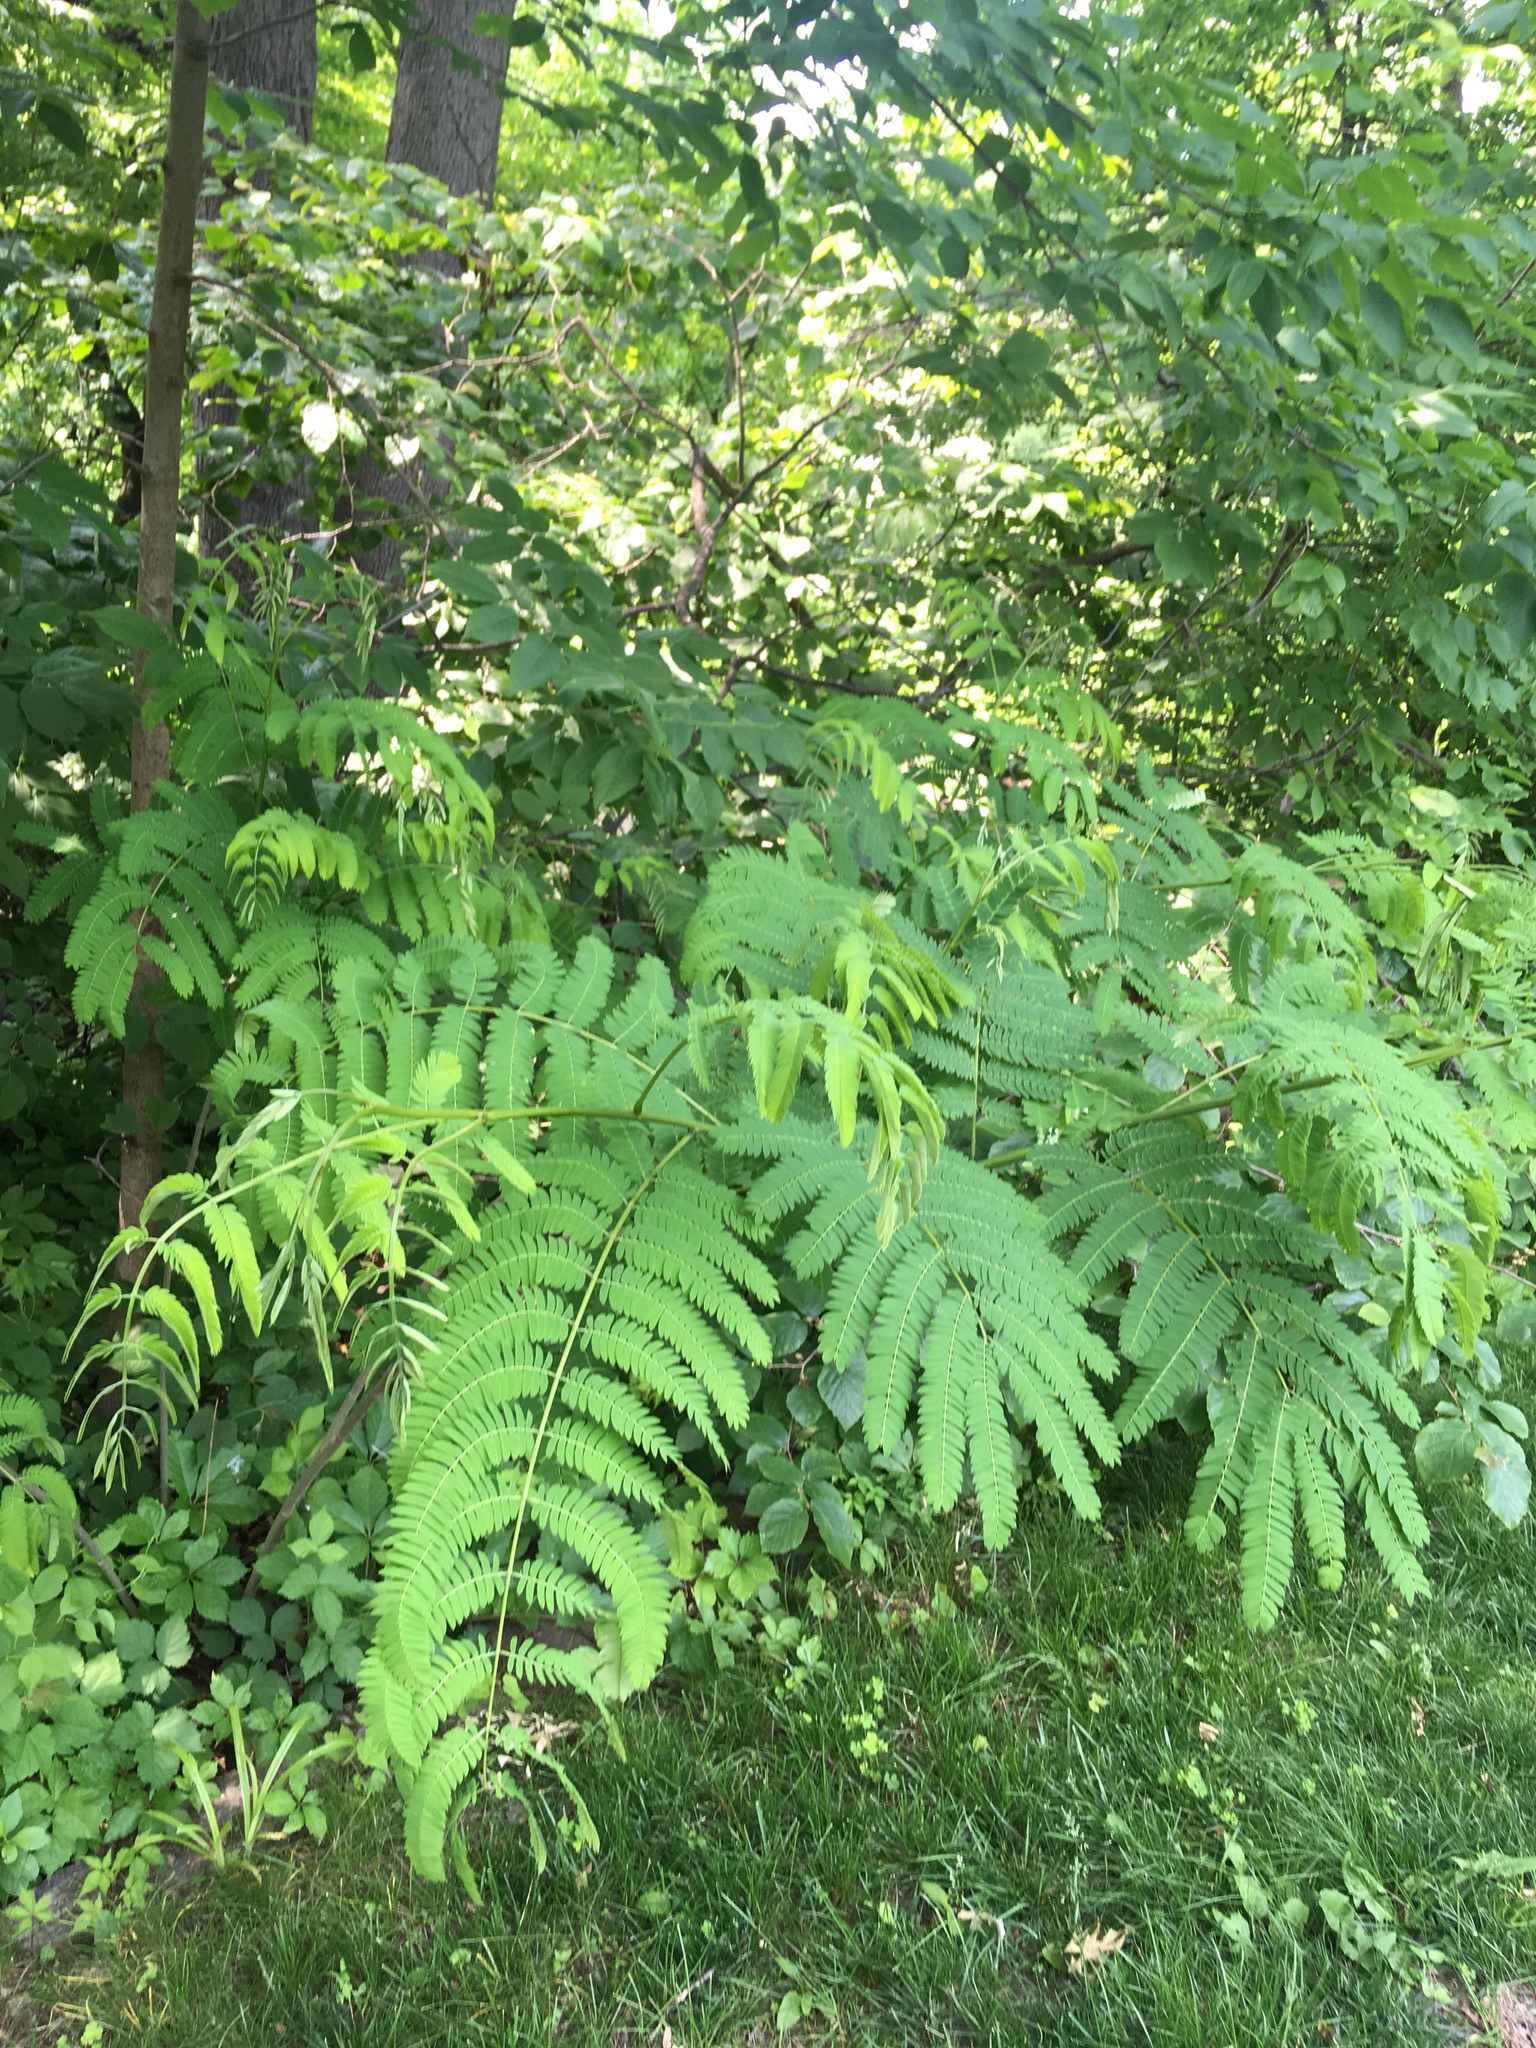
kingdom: Plantae
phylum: Tracheophyta
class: Magnoliopsida
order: Fabales
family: Fabaceae
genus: Albizia
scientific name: Albizia julibrissin
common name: Silktree
